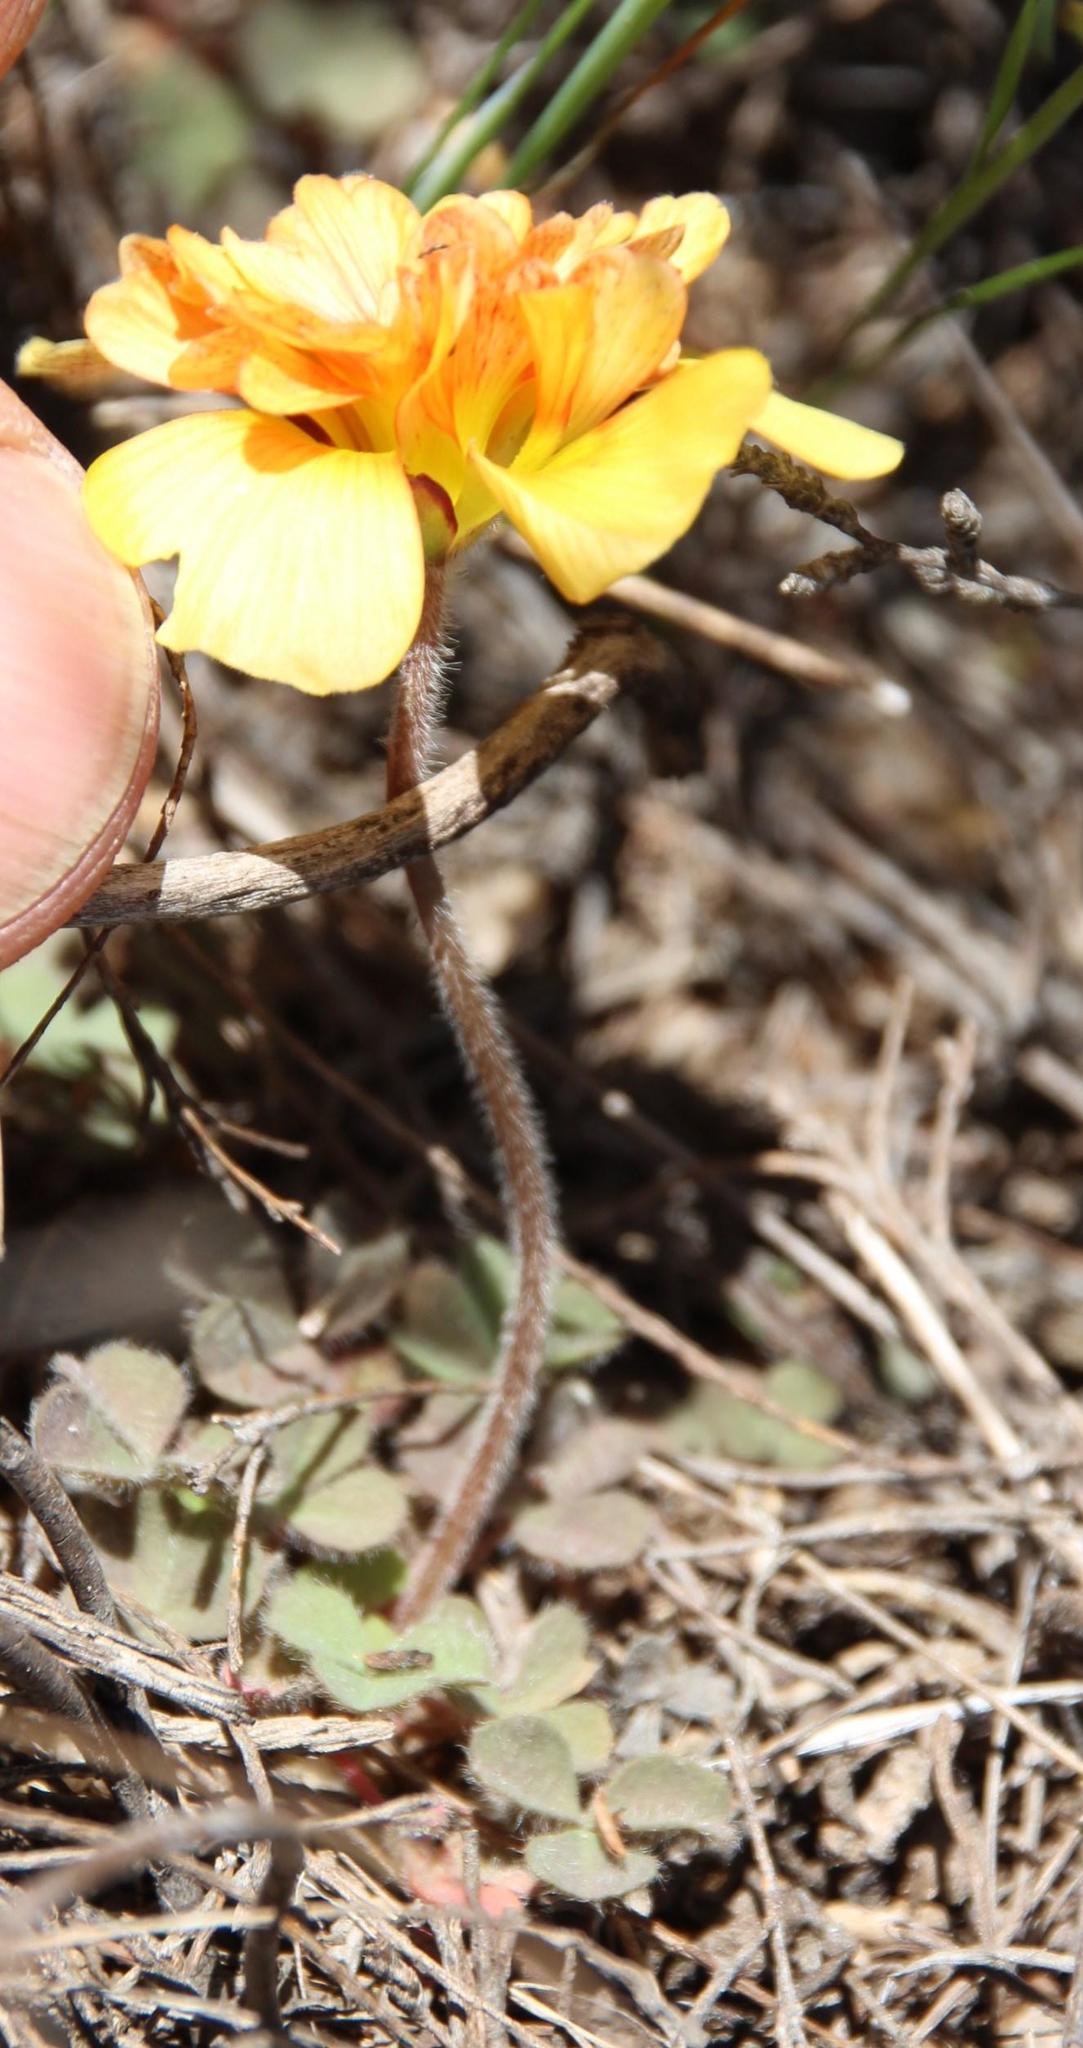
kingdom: Plantae
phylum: Tracheophyta
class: Magnoliopsida
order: Oxalidales
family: Oxalidaceae
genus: Oxalis
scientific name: Oxalis obtusa
